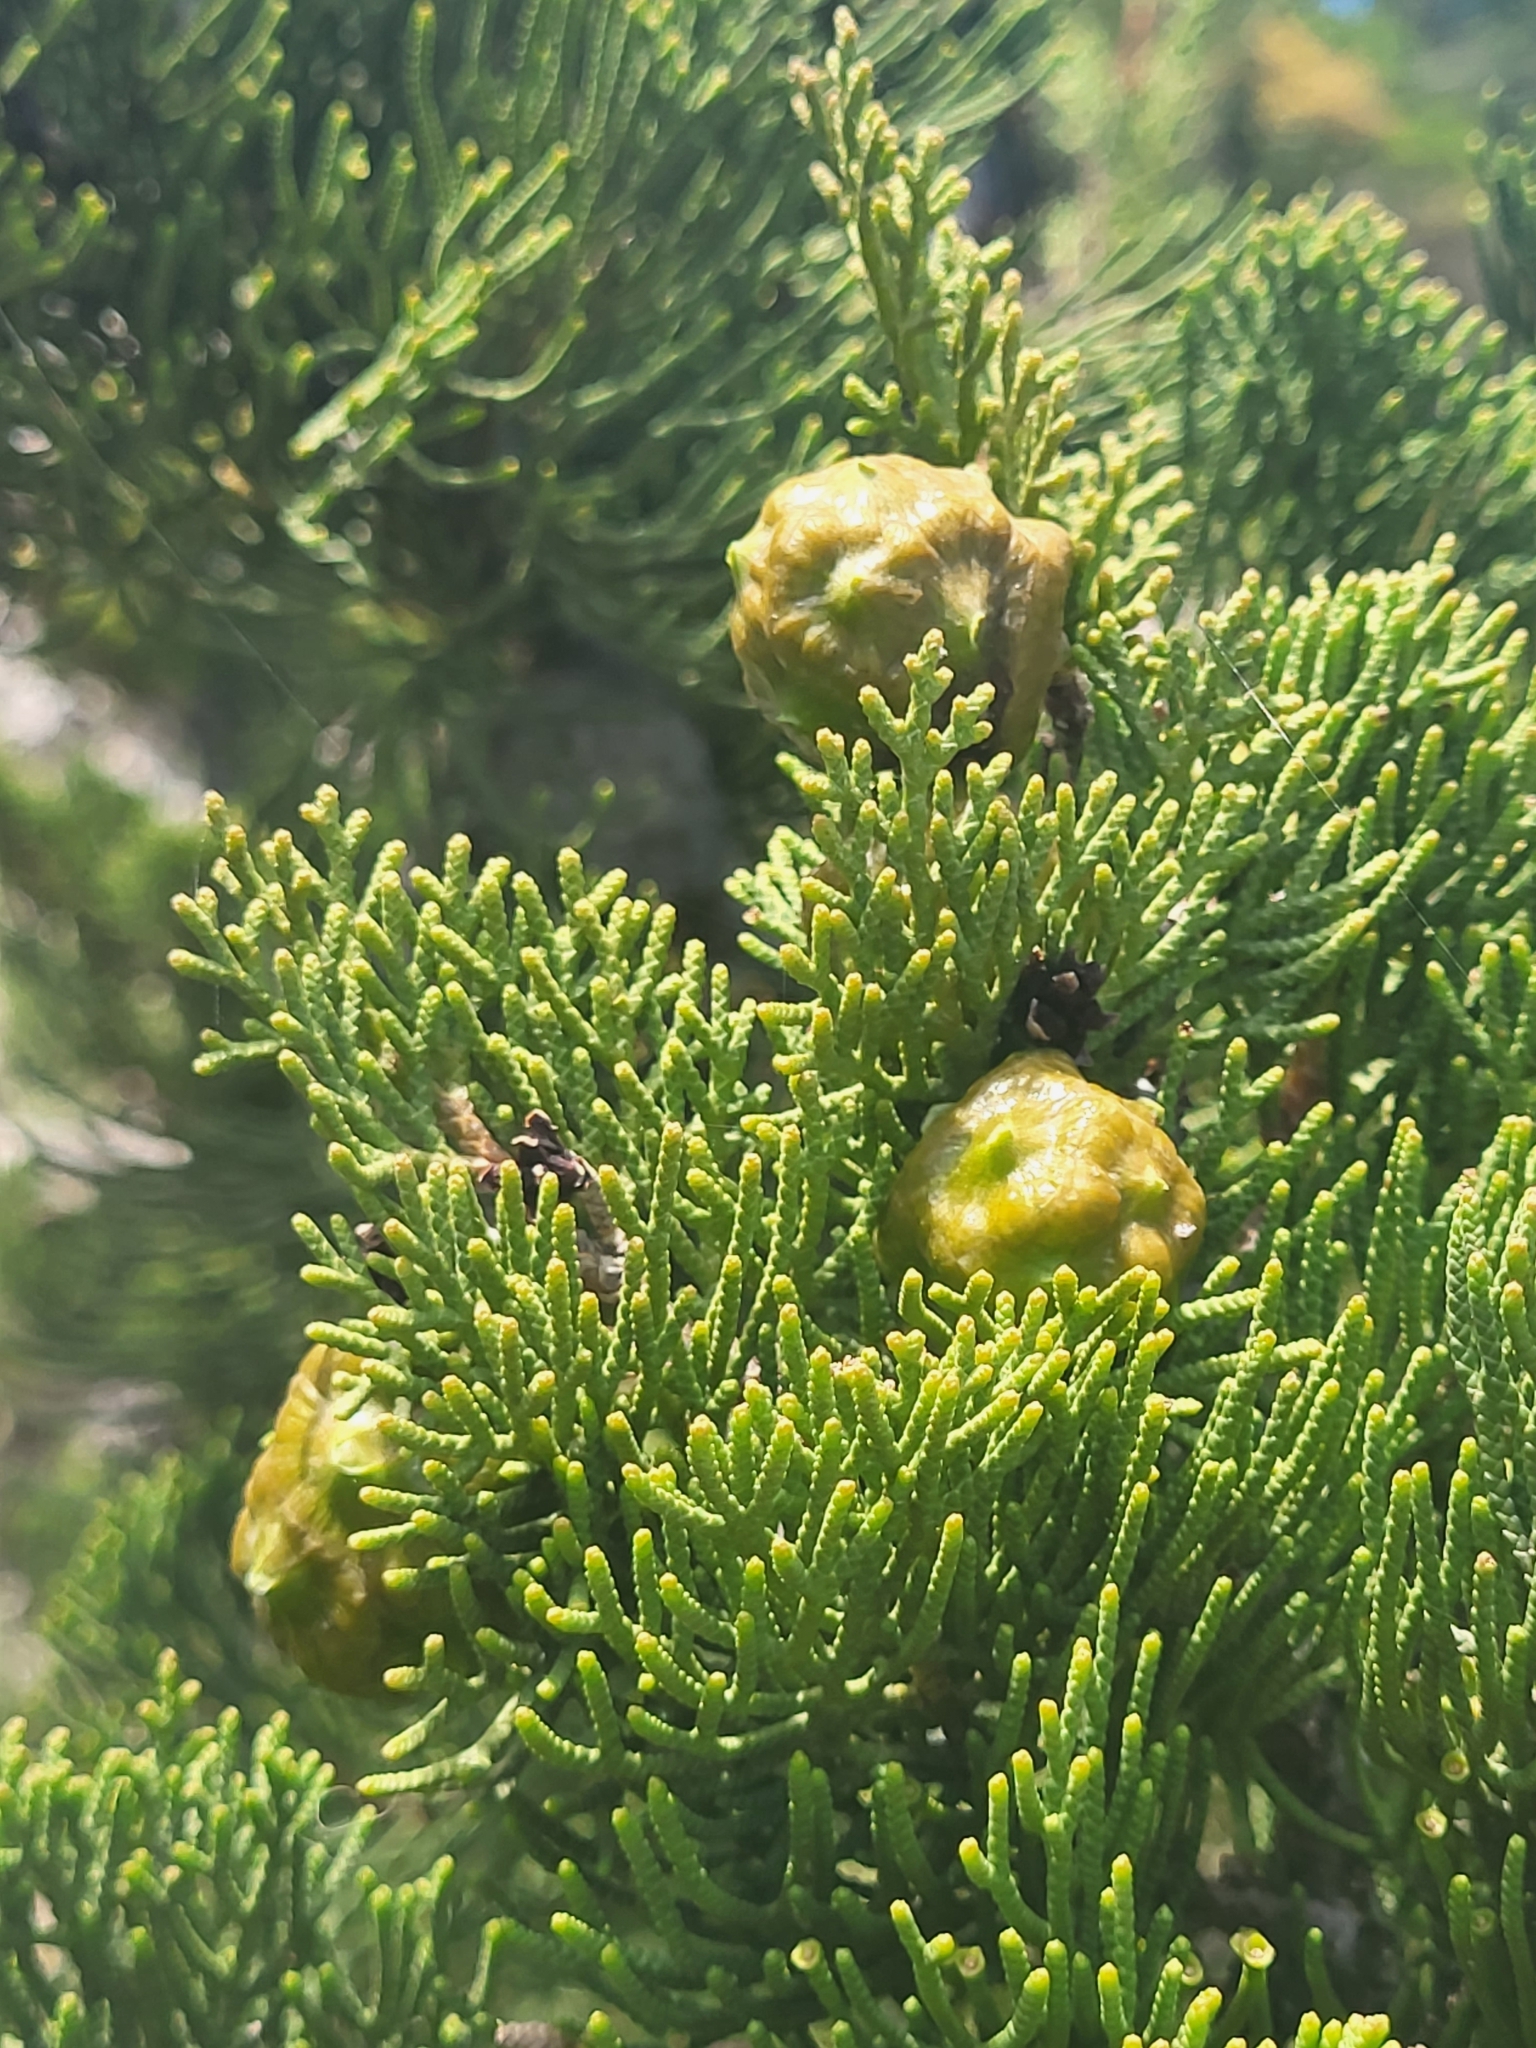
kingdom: Plantae
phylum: Tracheophyta
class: Pinopsida
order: Pinales
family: Cupressaceae
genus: Cupressus
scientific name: Cupressus sempervirens
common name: Italian cypress
